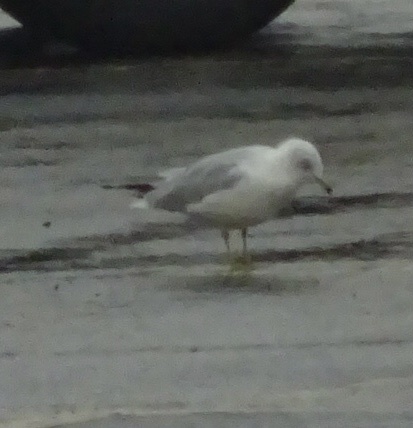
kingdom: Animalia
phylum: Chordata
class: Aves
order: Charadriiformes
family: Laridae
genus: Larus
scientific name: Larus delawarensis
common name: Ring-billed gull
